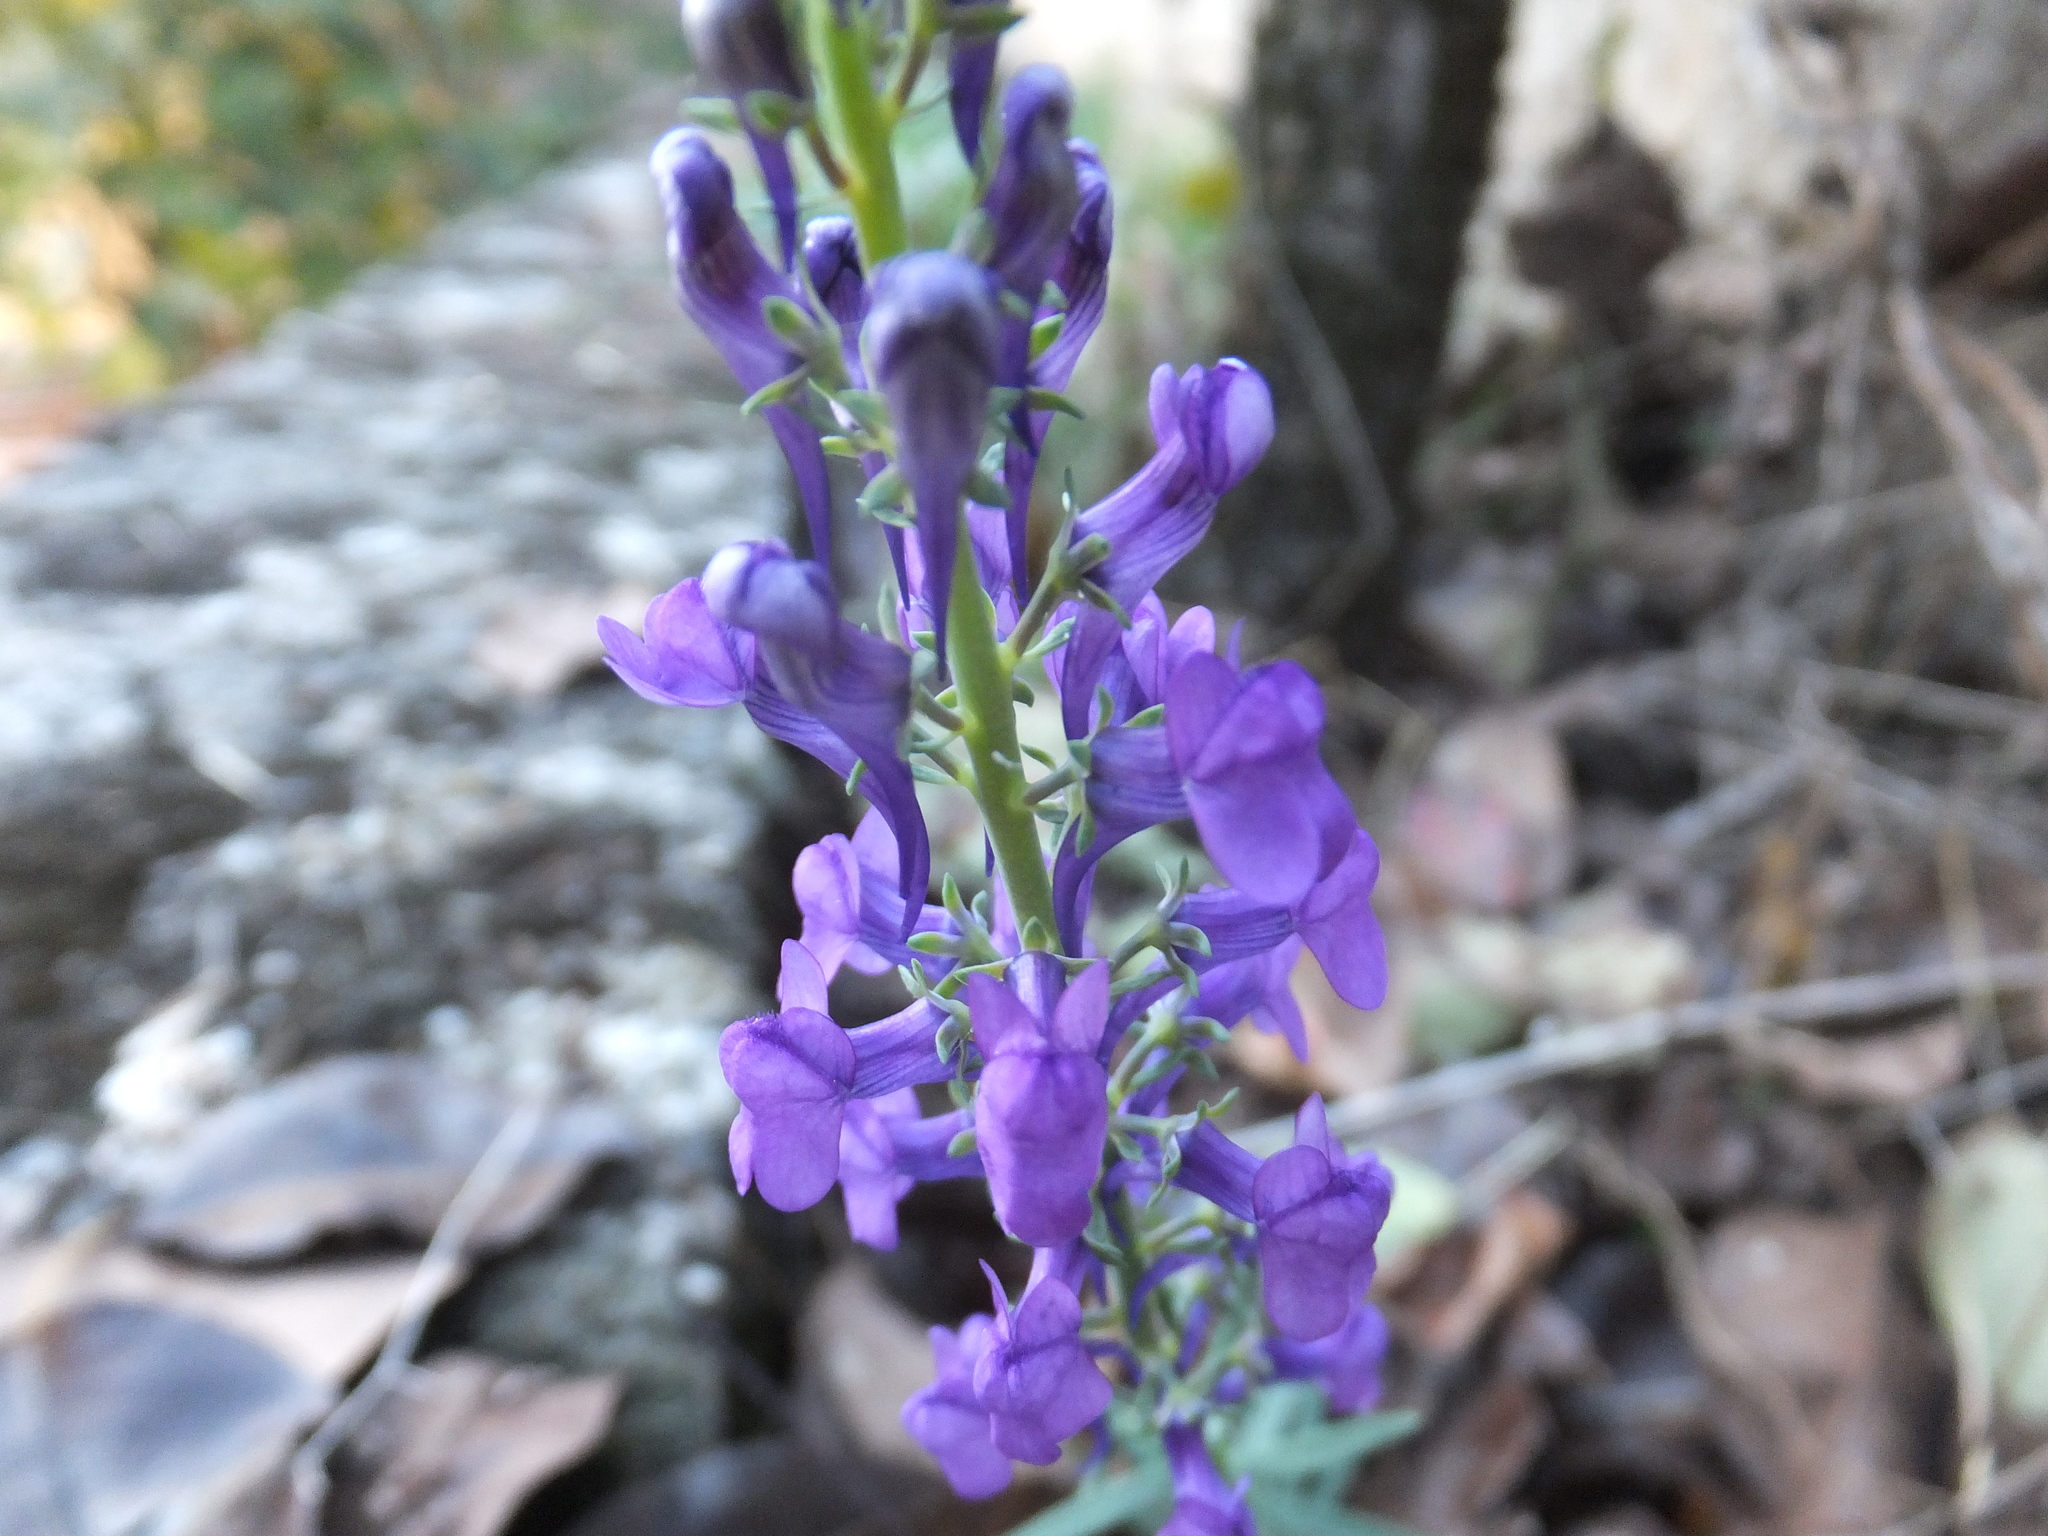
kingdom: Plantae
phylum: Tracheophyta
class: Magnoliopsida
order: Lamiales
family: Plantaginaceae
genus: Linaria
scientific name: Linaria purpurea
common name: Purple toadflax
